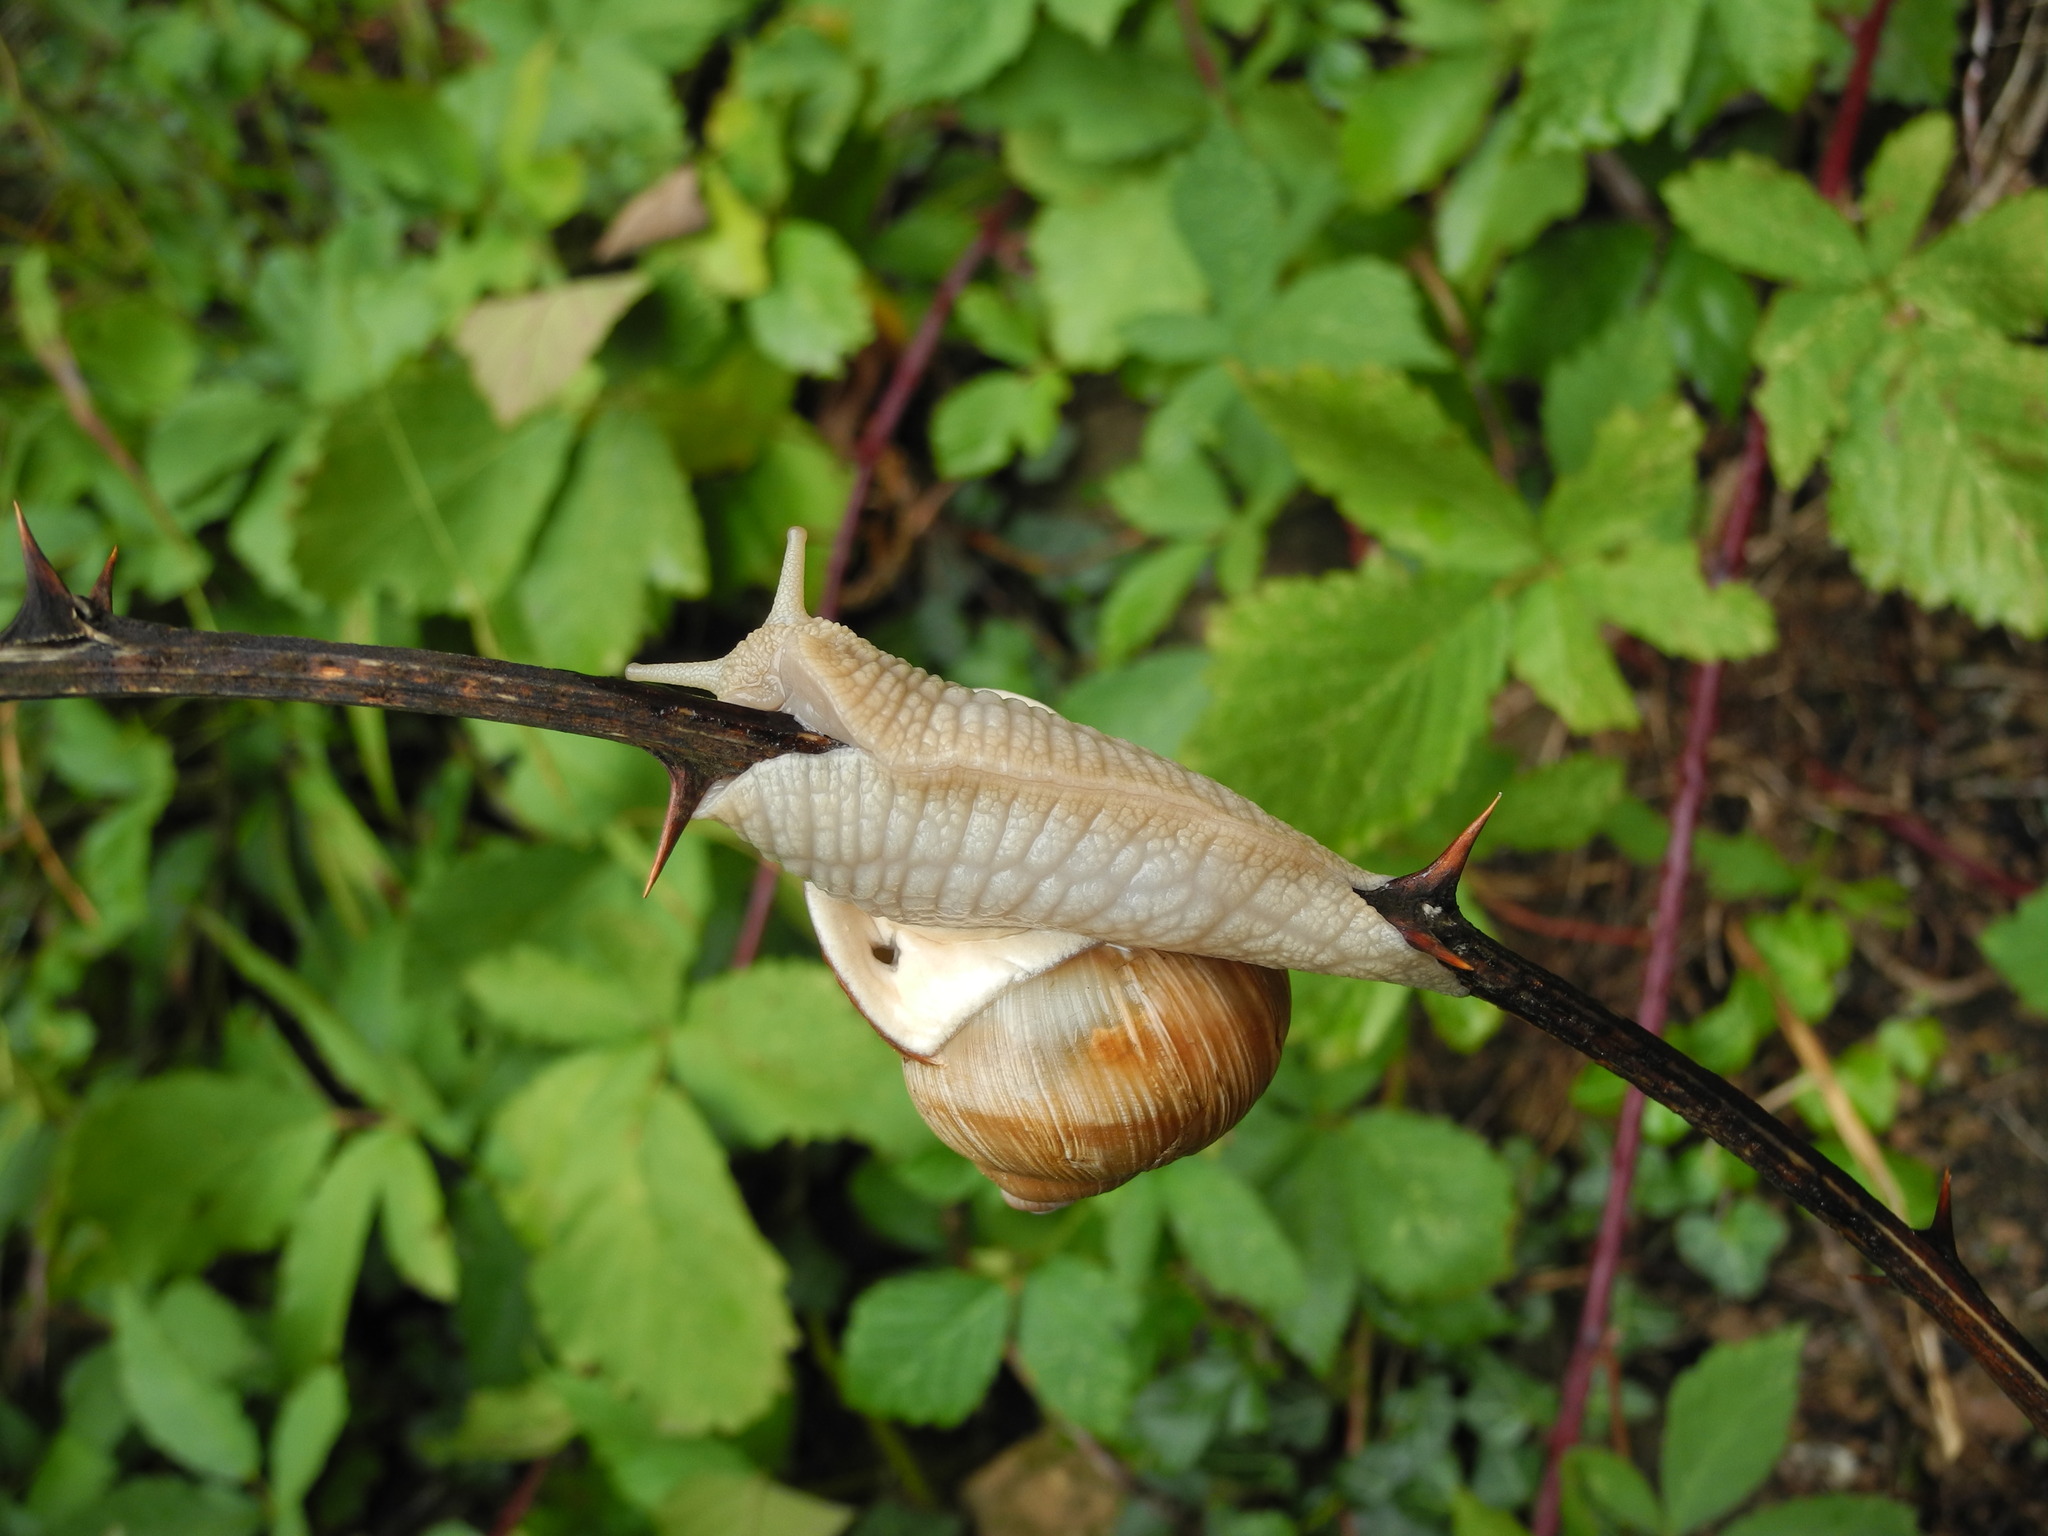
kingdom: Animalia
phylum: Mollusca
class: Gastropoda
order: Stylommatophora
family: Helicidae
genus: Helix
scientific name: Helix pomatia
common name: Roman snail
